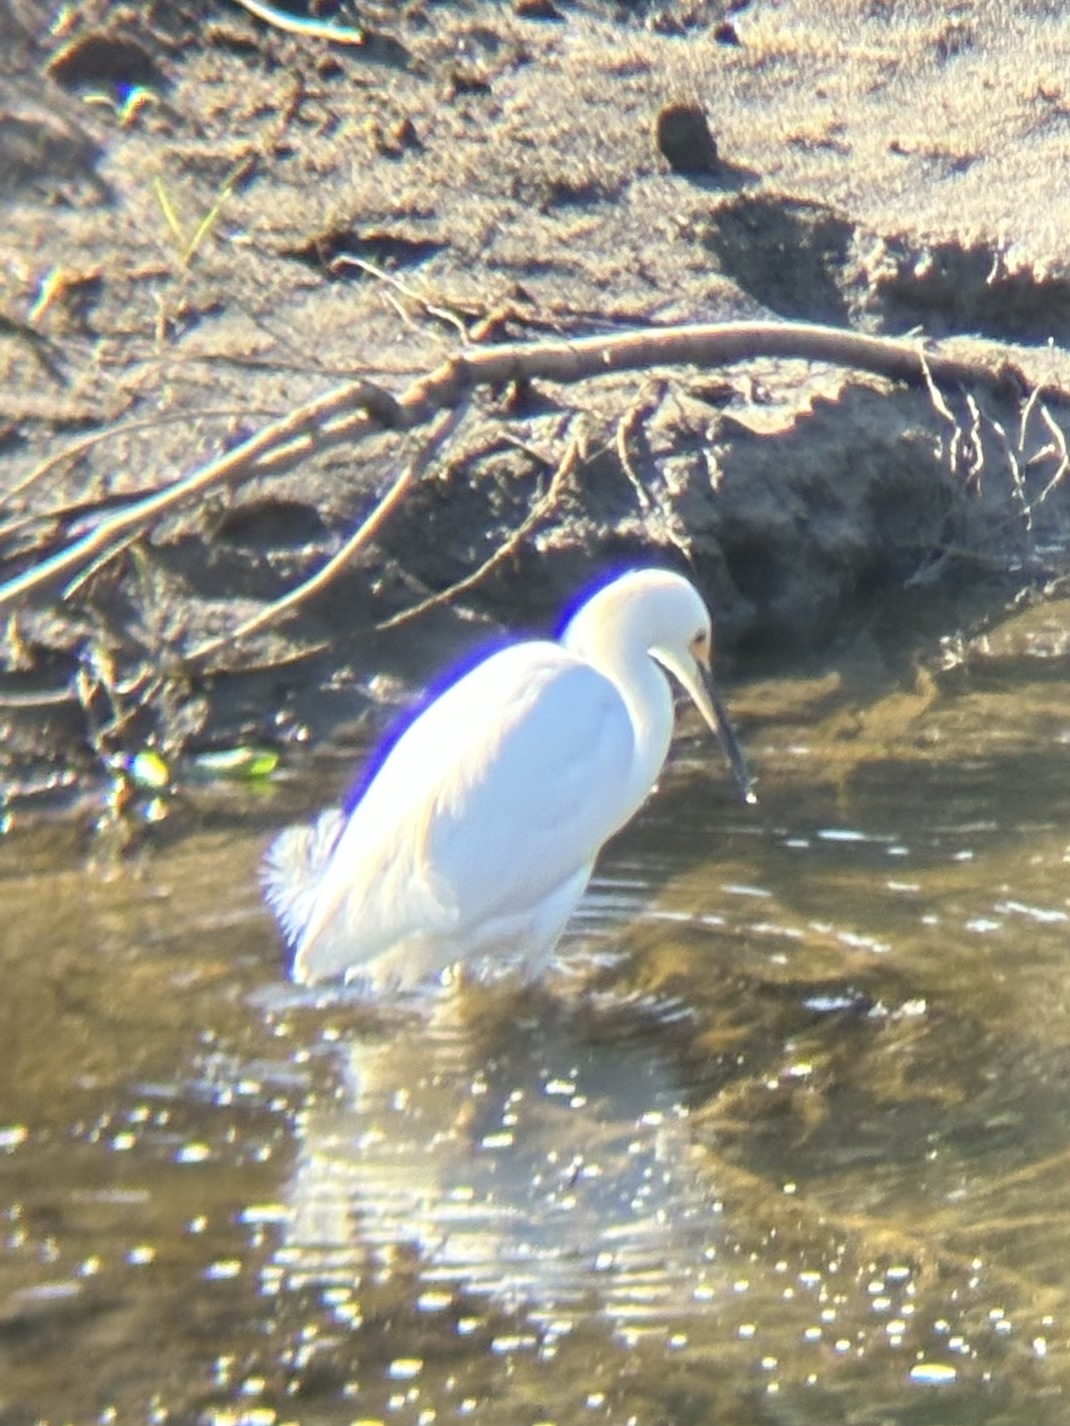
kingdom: Animalia
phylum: Chordata
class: Aves
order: Pelecaniformes
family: Ardeidae
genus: Egretta
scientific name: Egretta thula
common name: Snowy egret
